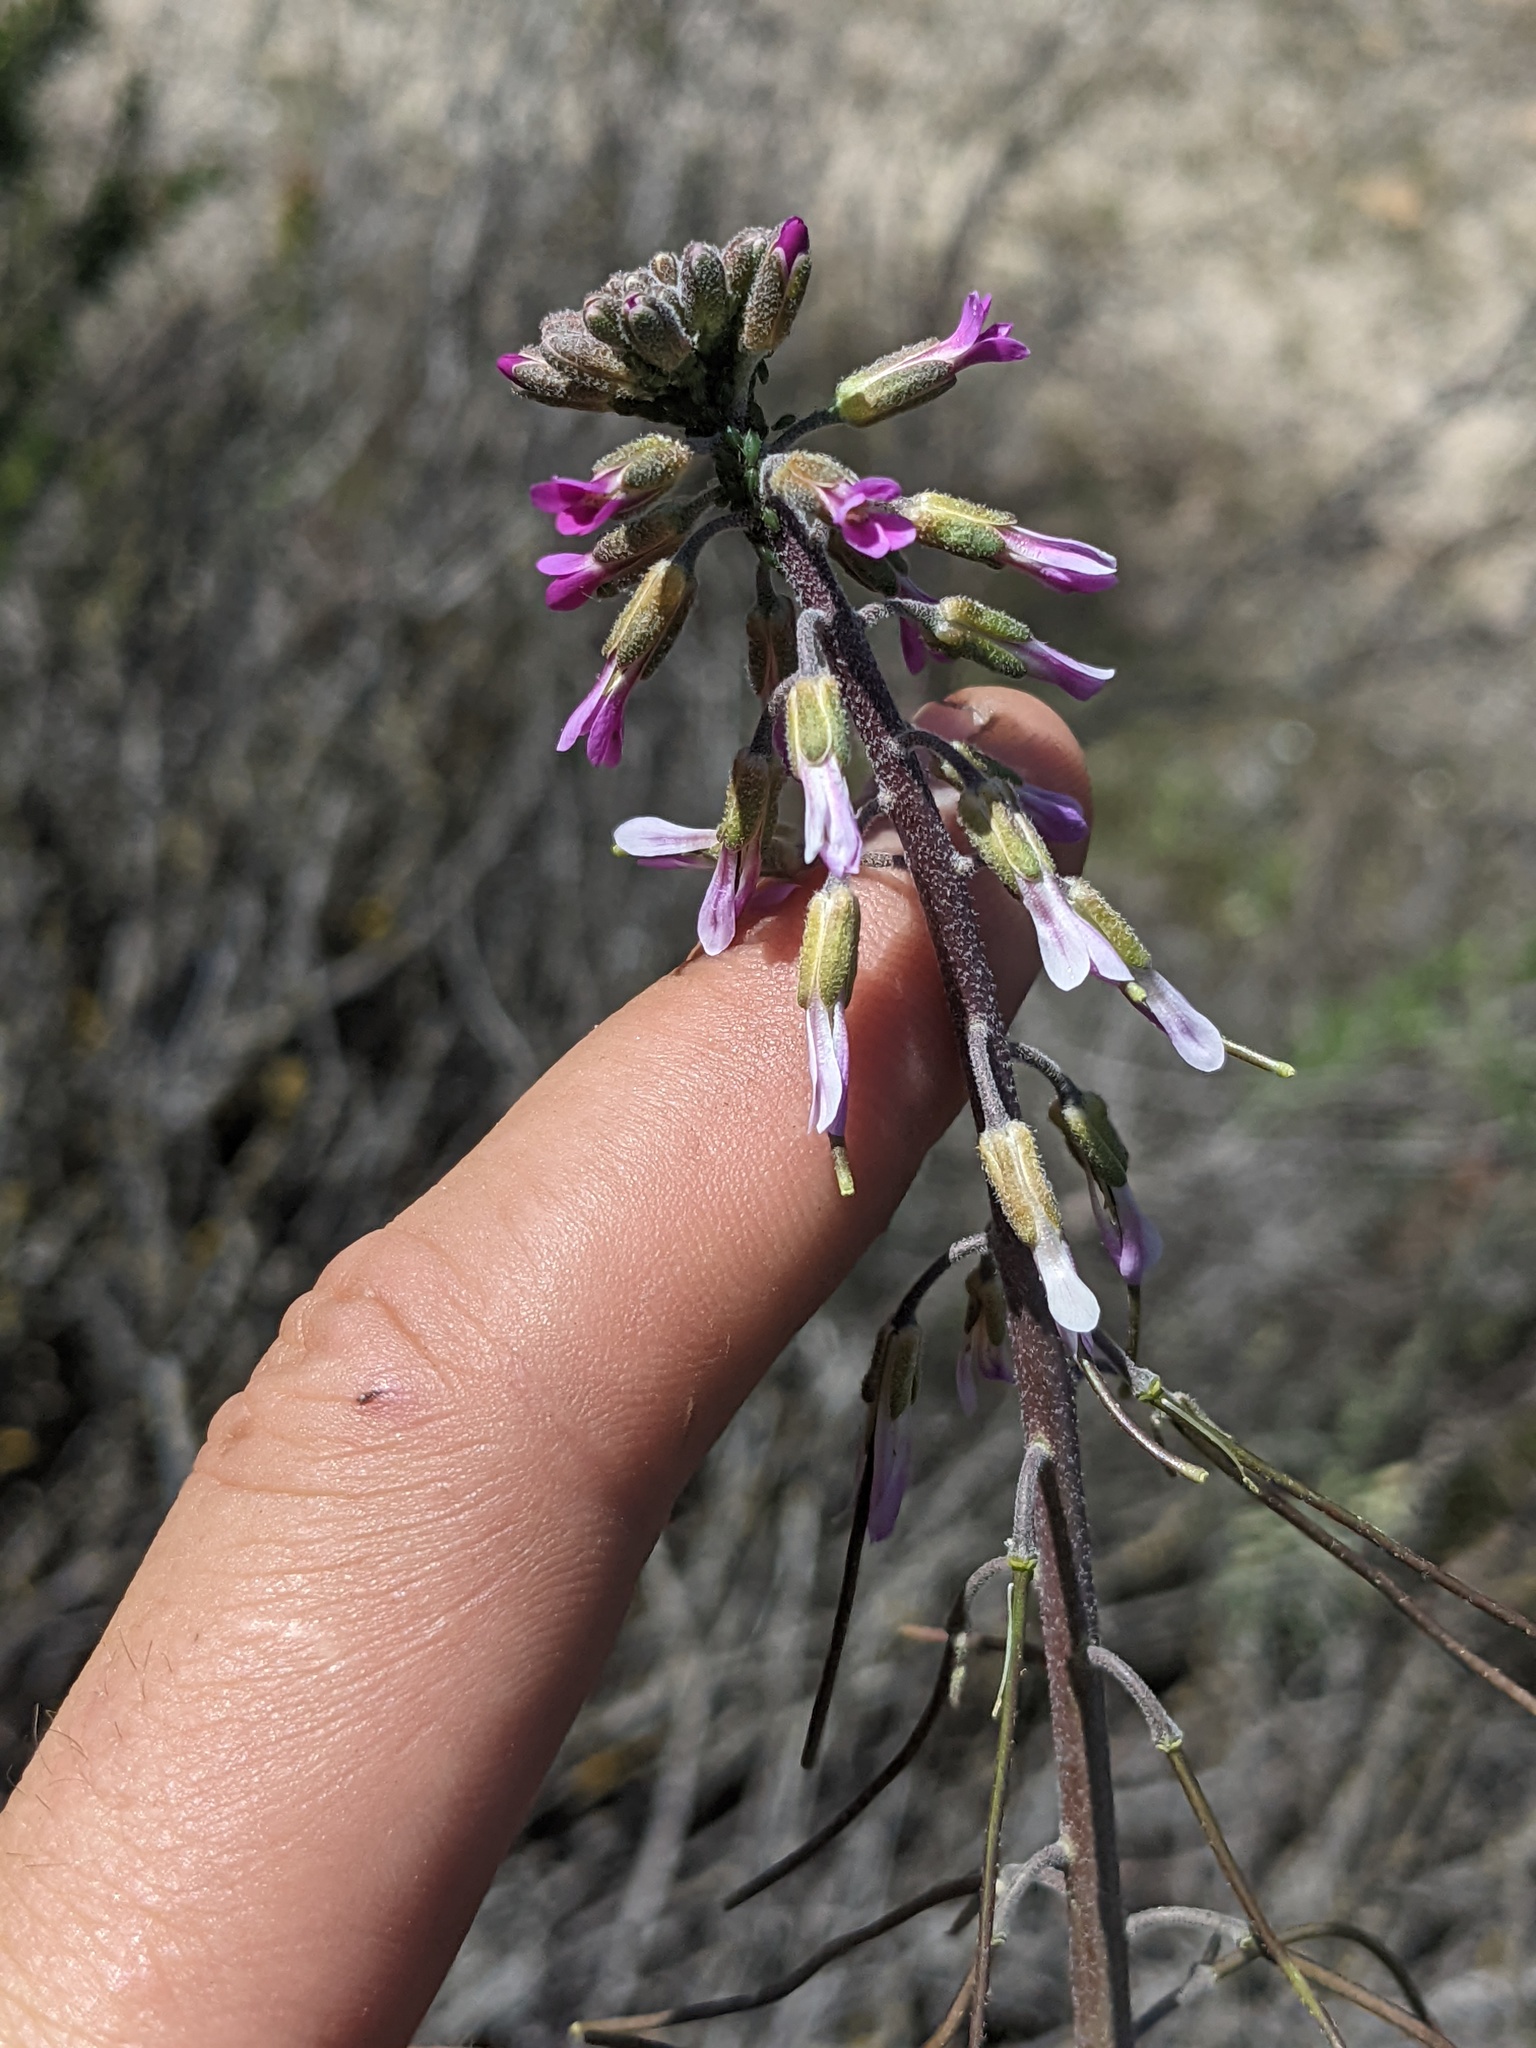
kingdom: Plantae
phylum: Tracheophyta
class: Magnoliopsida
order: Brassicales
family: Brassicaceae
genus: Boechera
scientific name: Boechera californica
